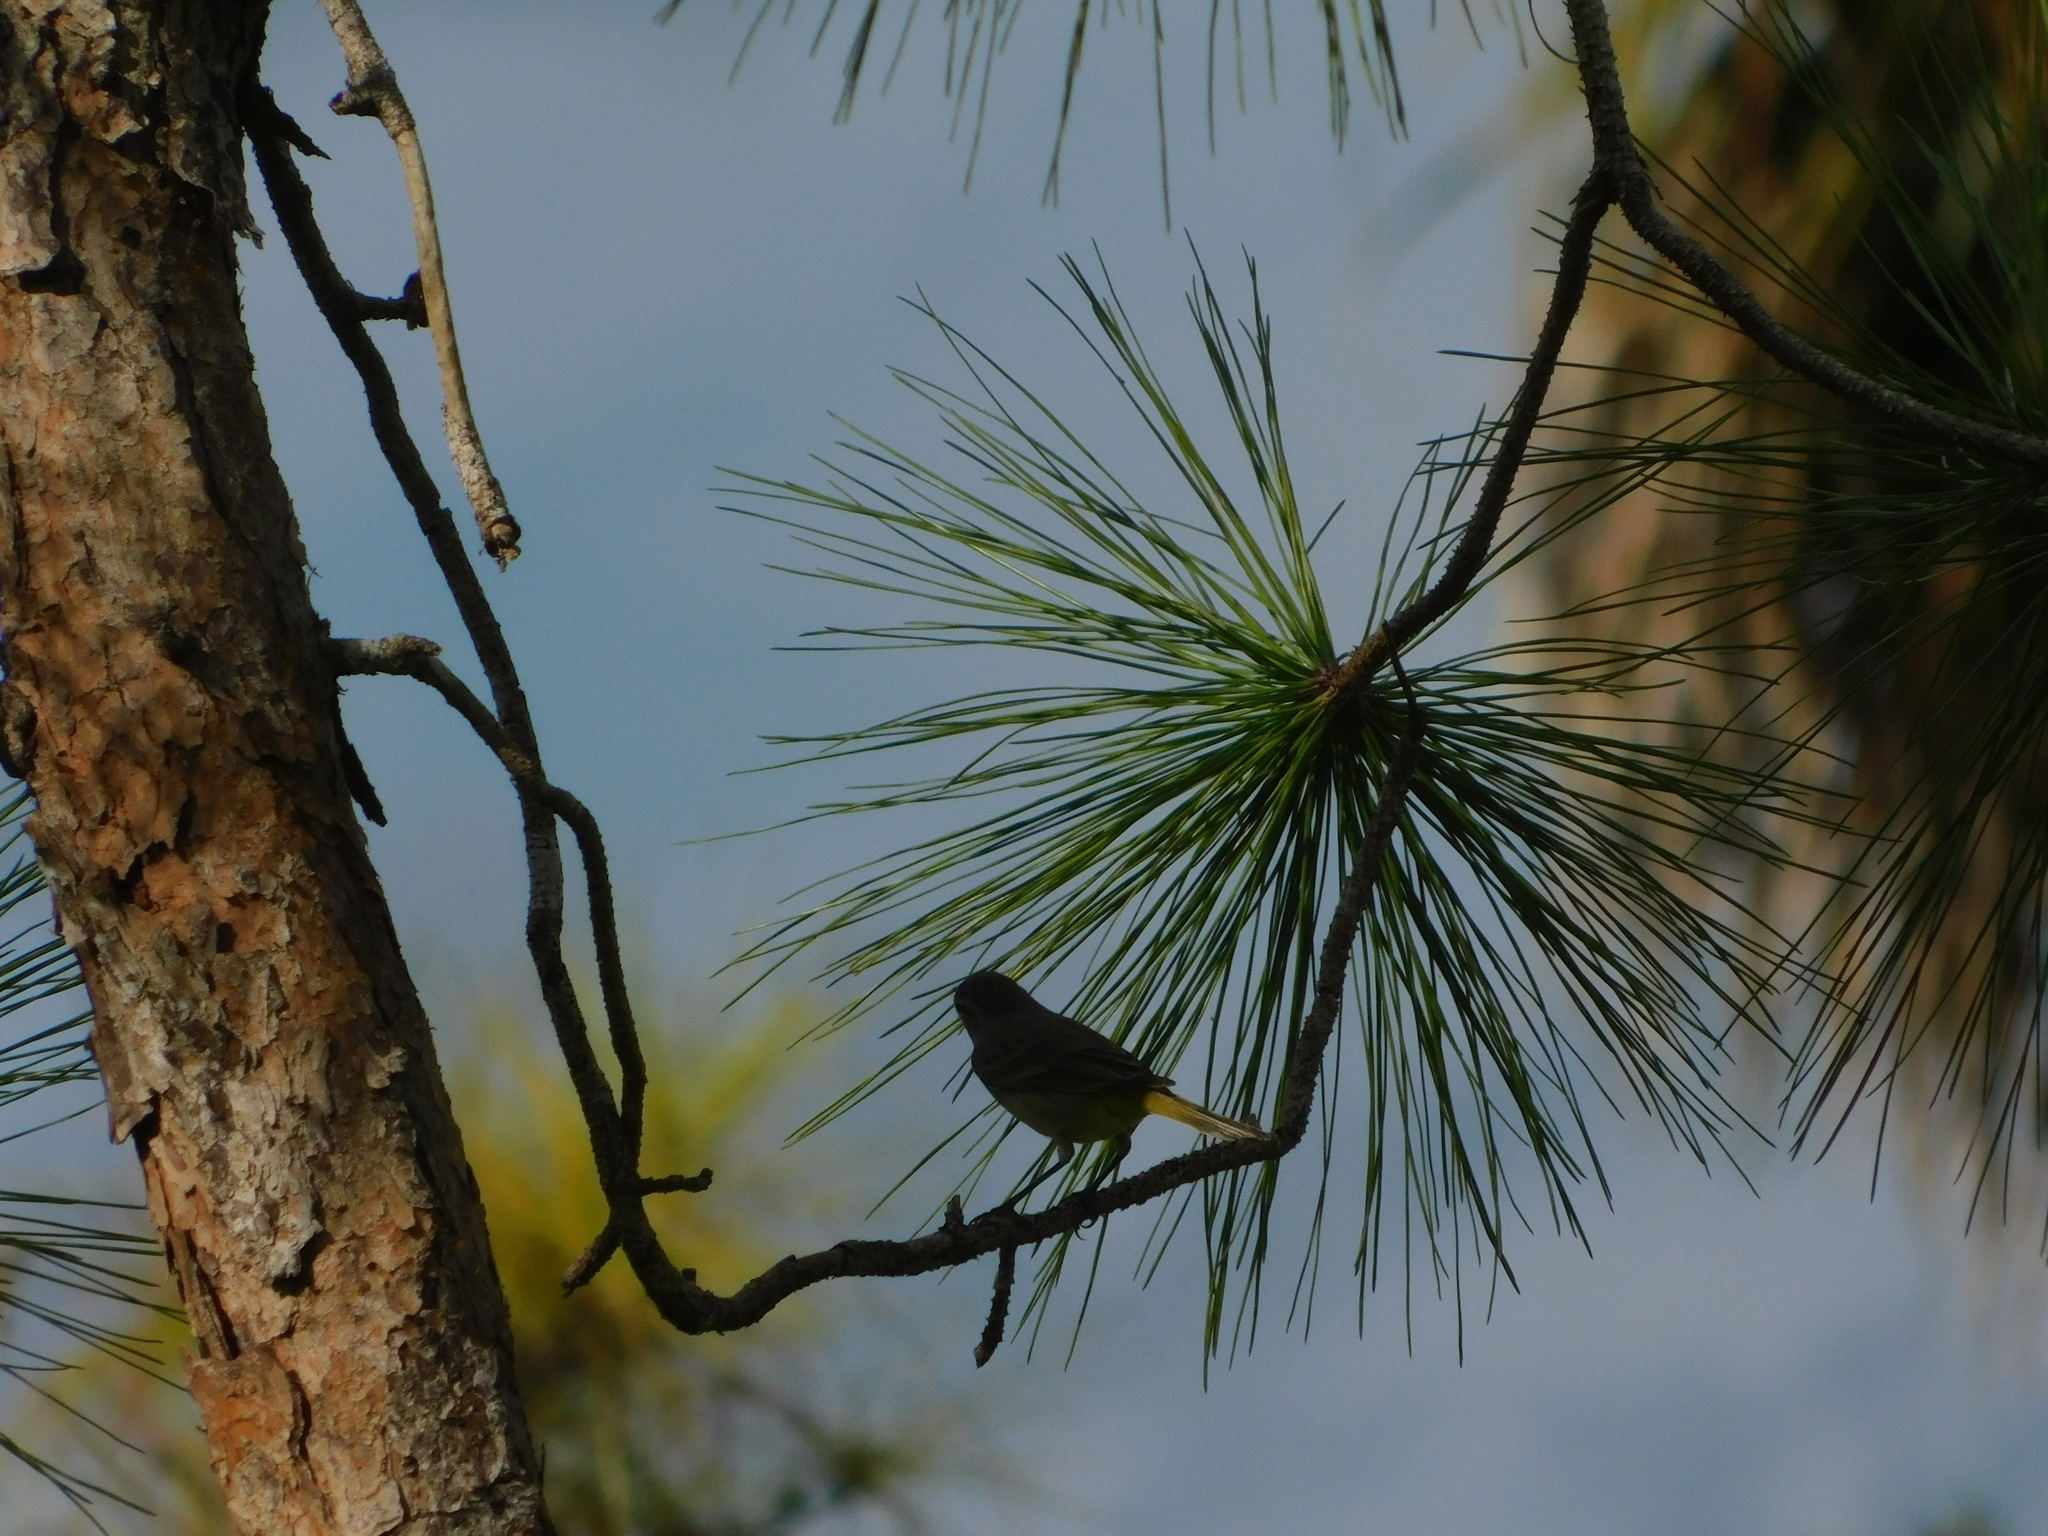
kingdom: Animalia
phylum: Chordata
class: Aves
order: Passeriformes
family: Parulidae
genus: Setophaga
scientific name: Setophaga palmarum
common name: Palm warbler
